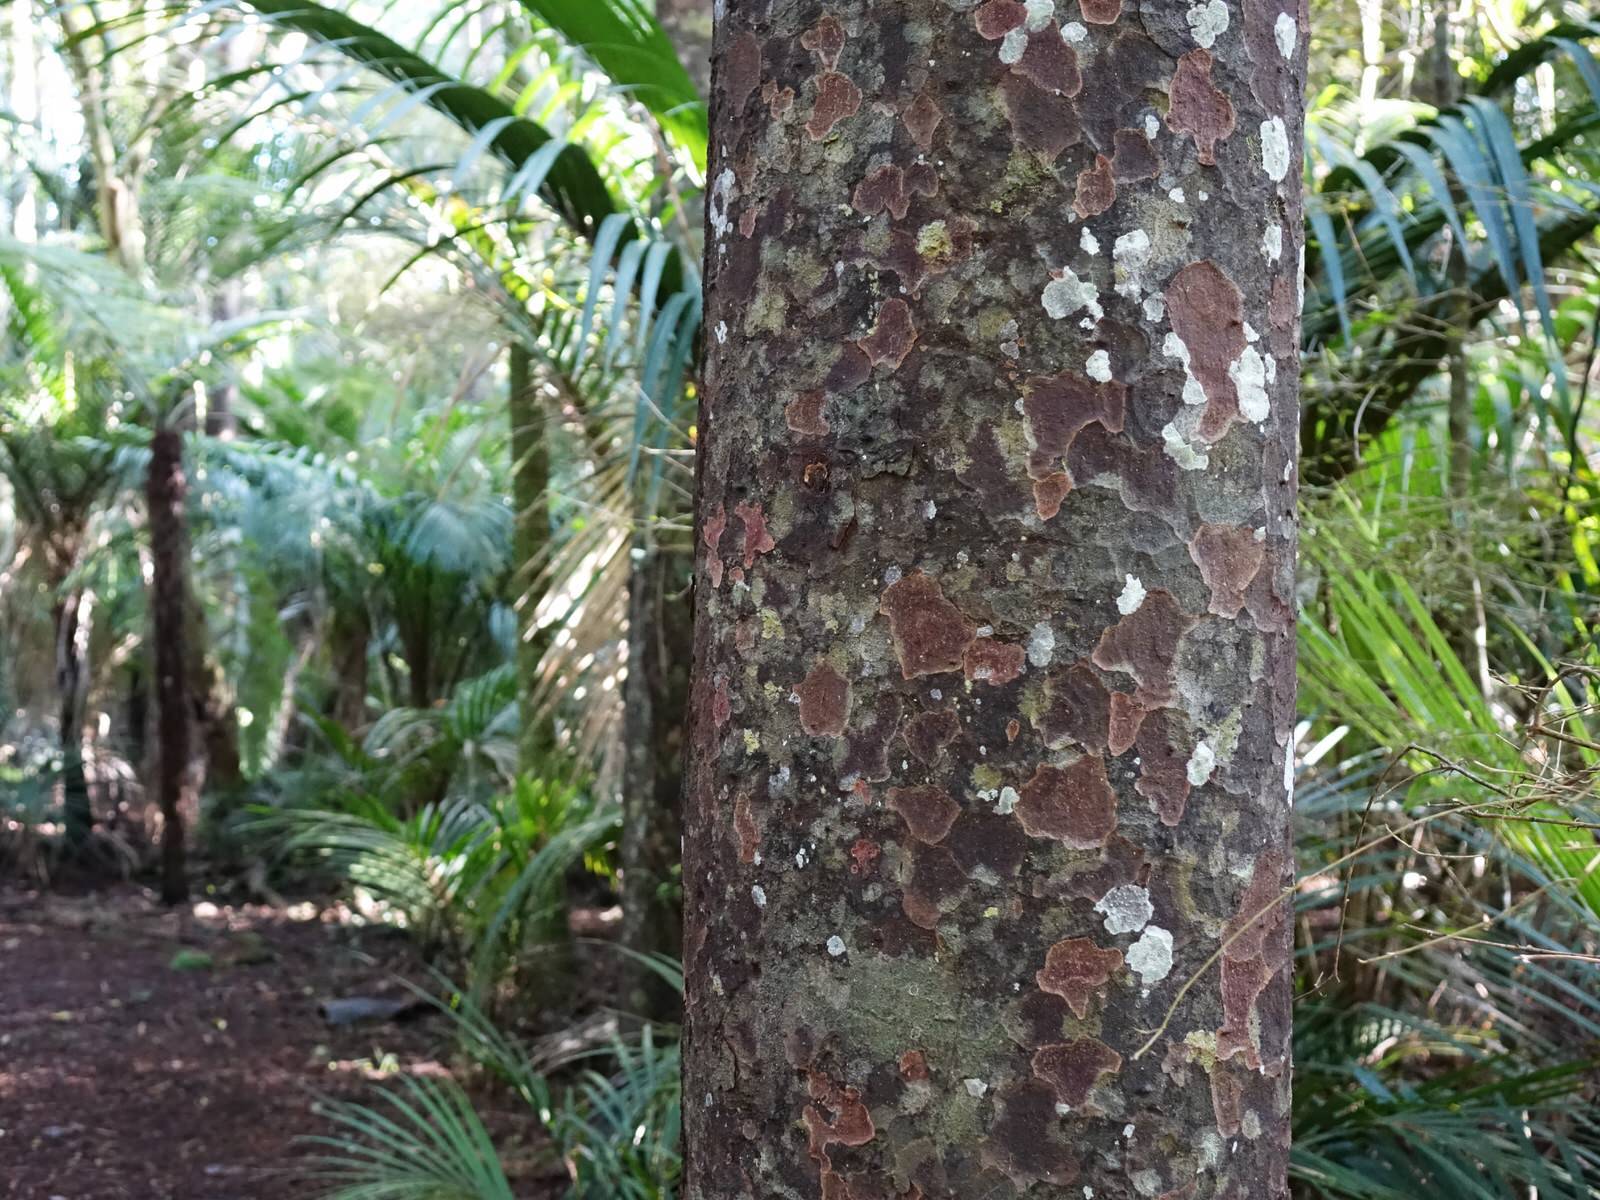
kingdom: Plantae
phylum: Tracheophyta
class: Pinopsida
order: Pinales
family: Podocarpaceae
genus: Prumnopitys
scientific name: Prumnopitys taxifolia
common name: Matai
